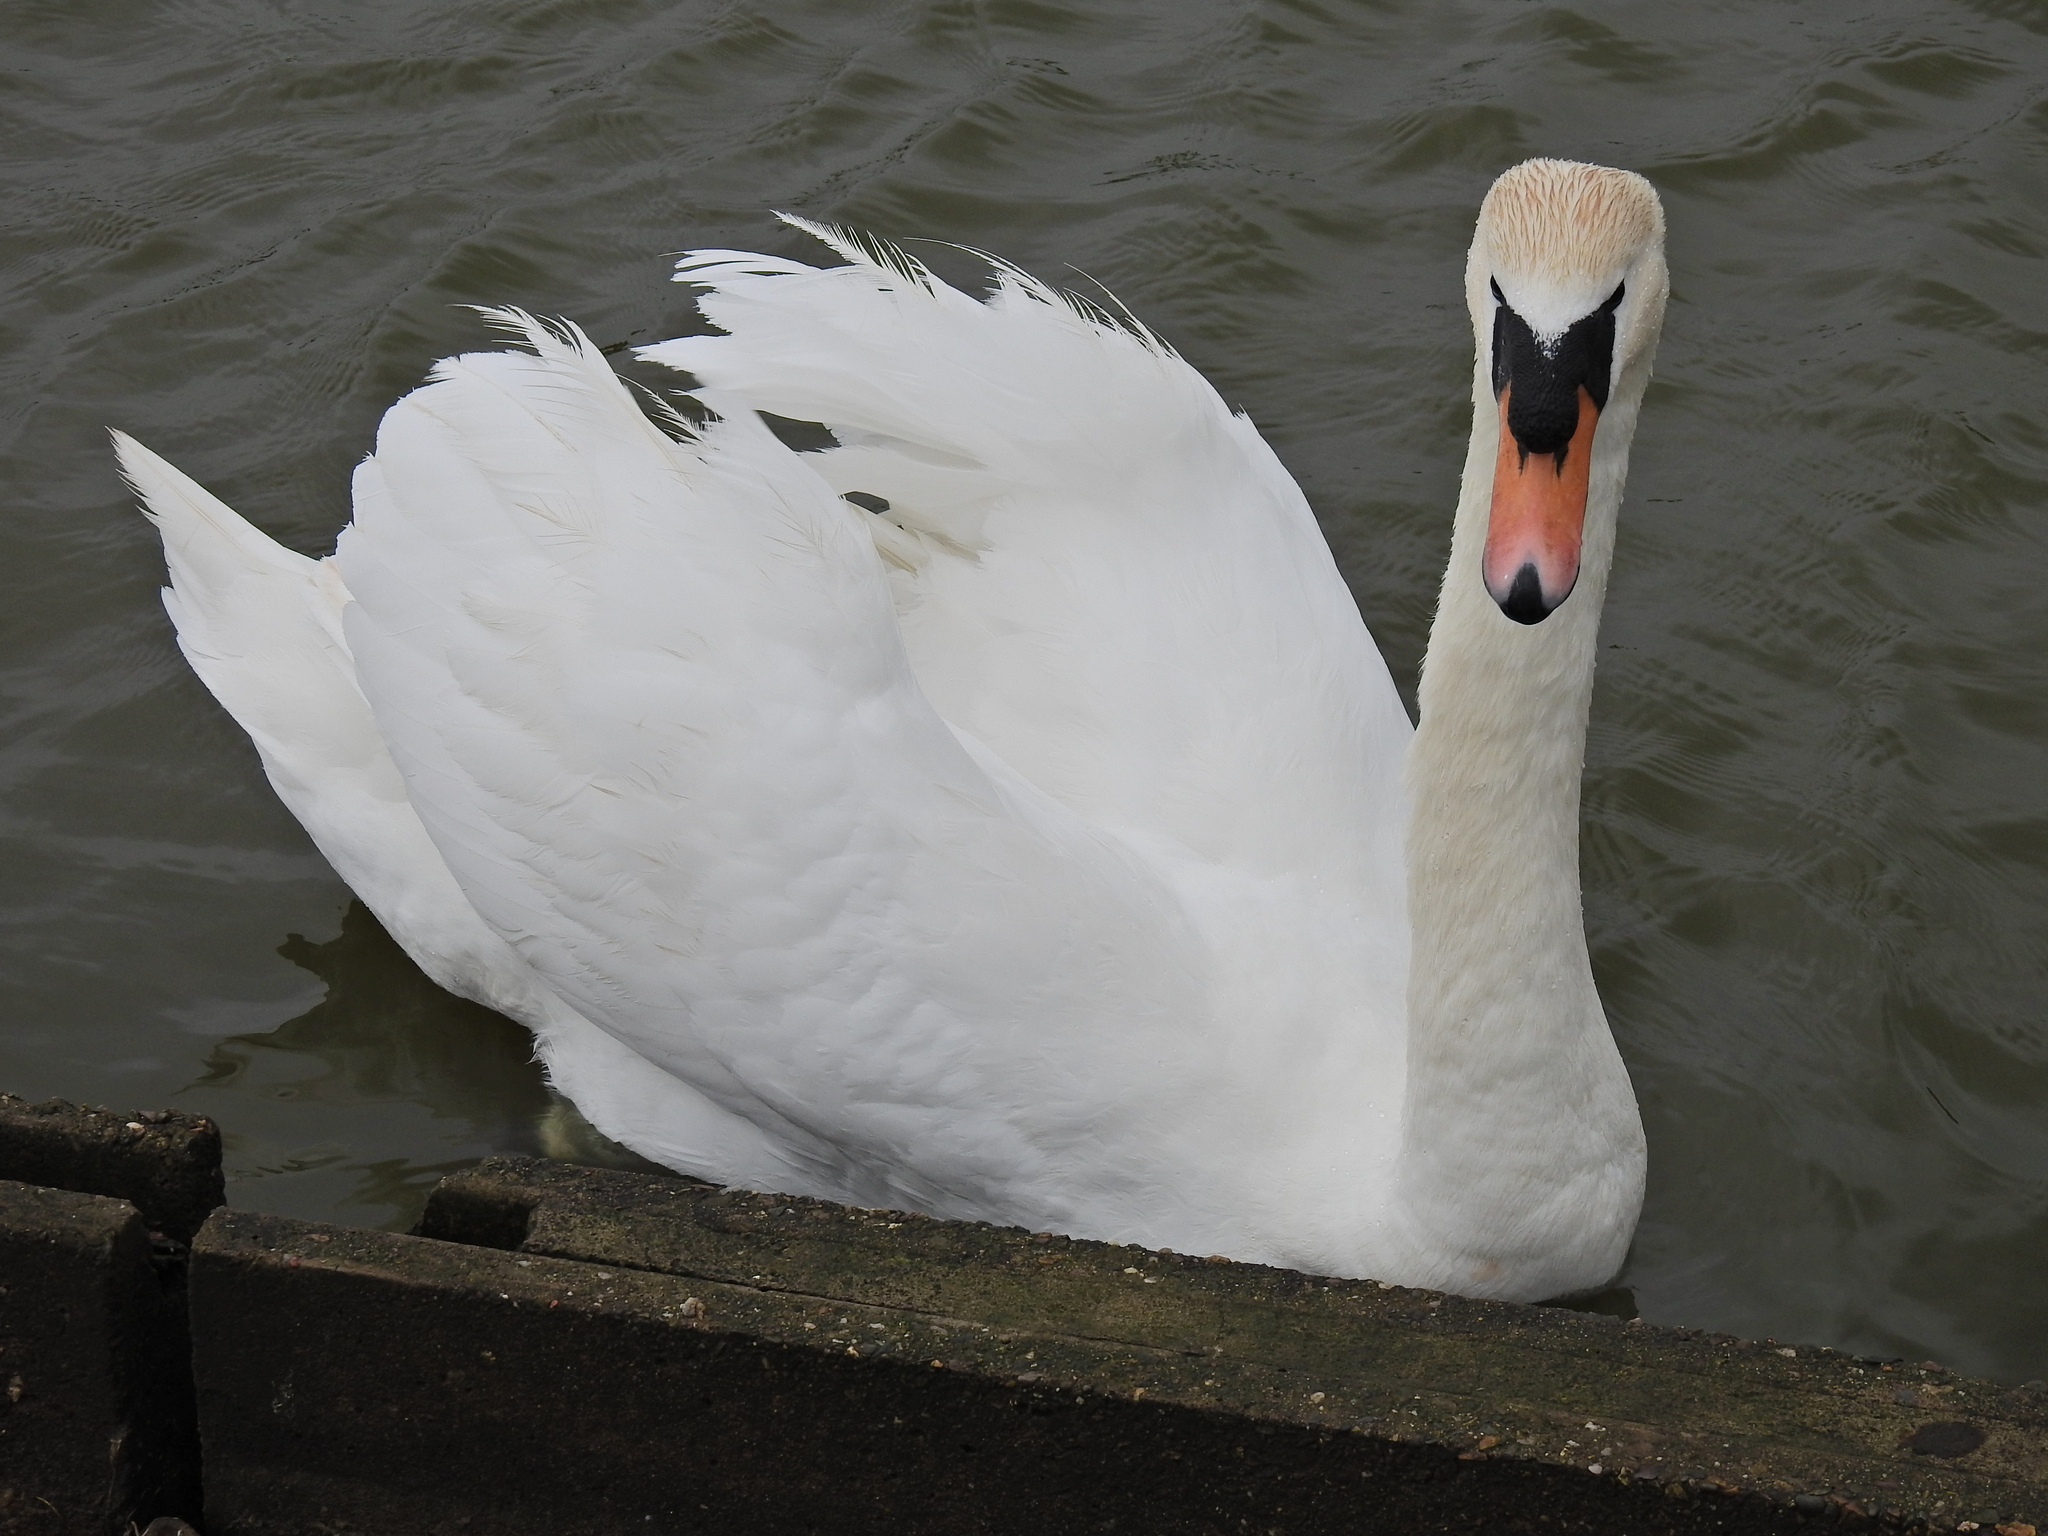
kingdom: Animalia
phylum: Chordata
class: Aves
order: Anseriformes
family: Anatidae
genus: Cygnus
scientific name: Cygnus olor
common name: Mute swan
